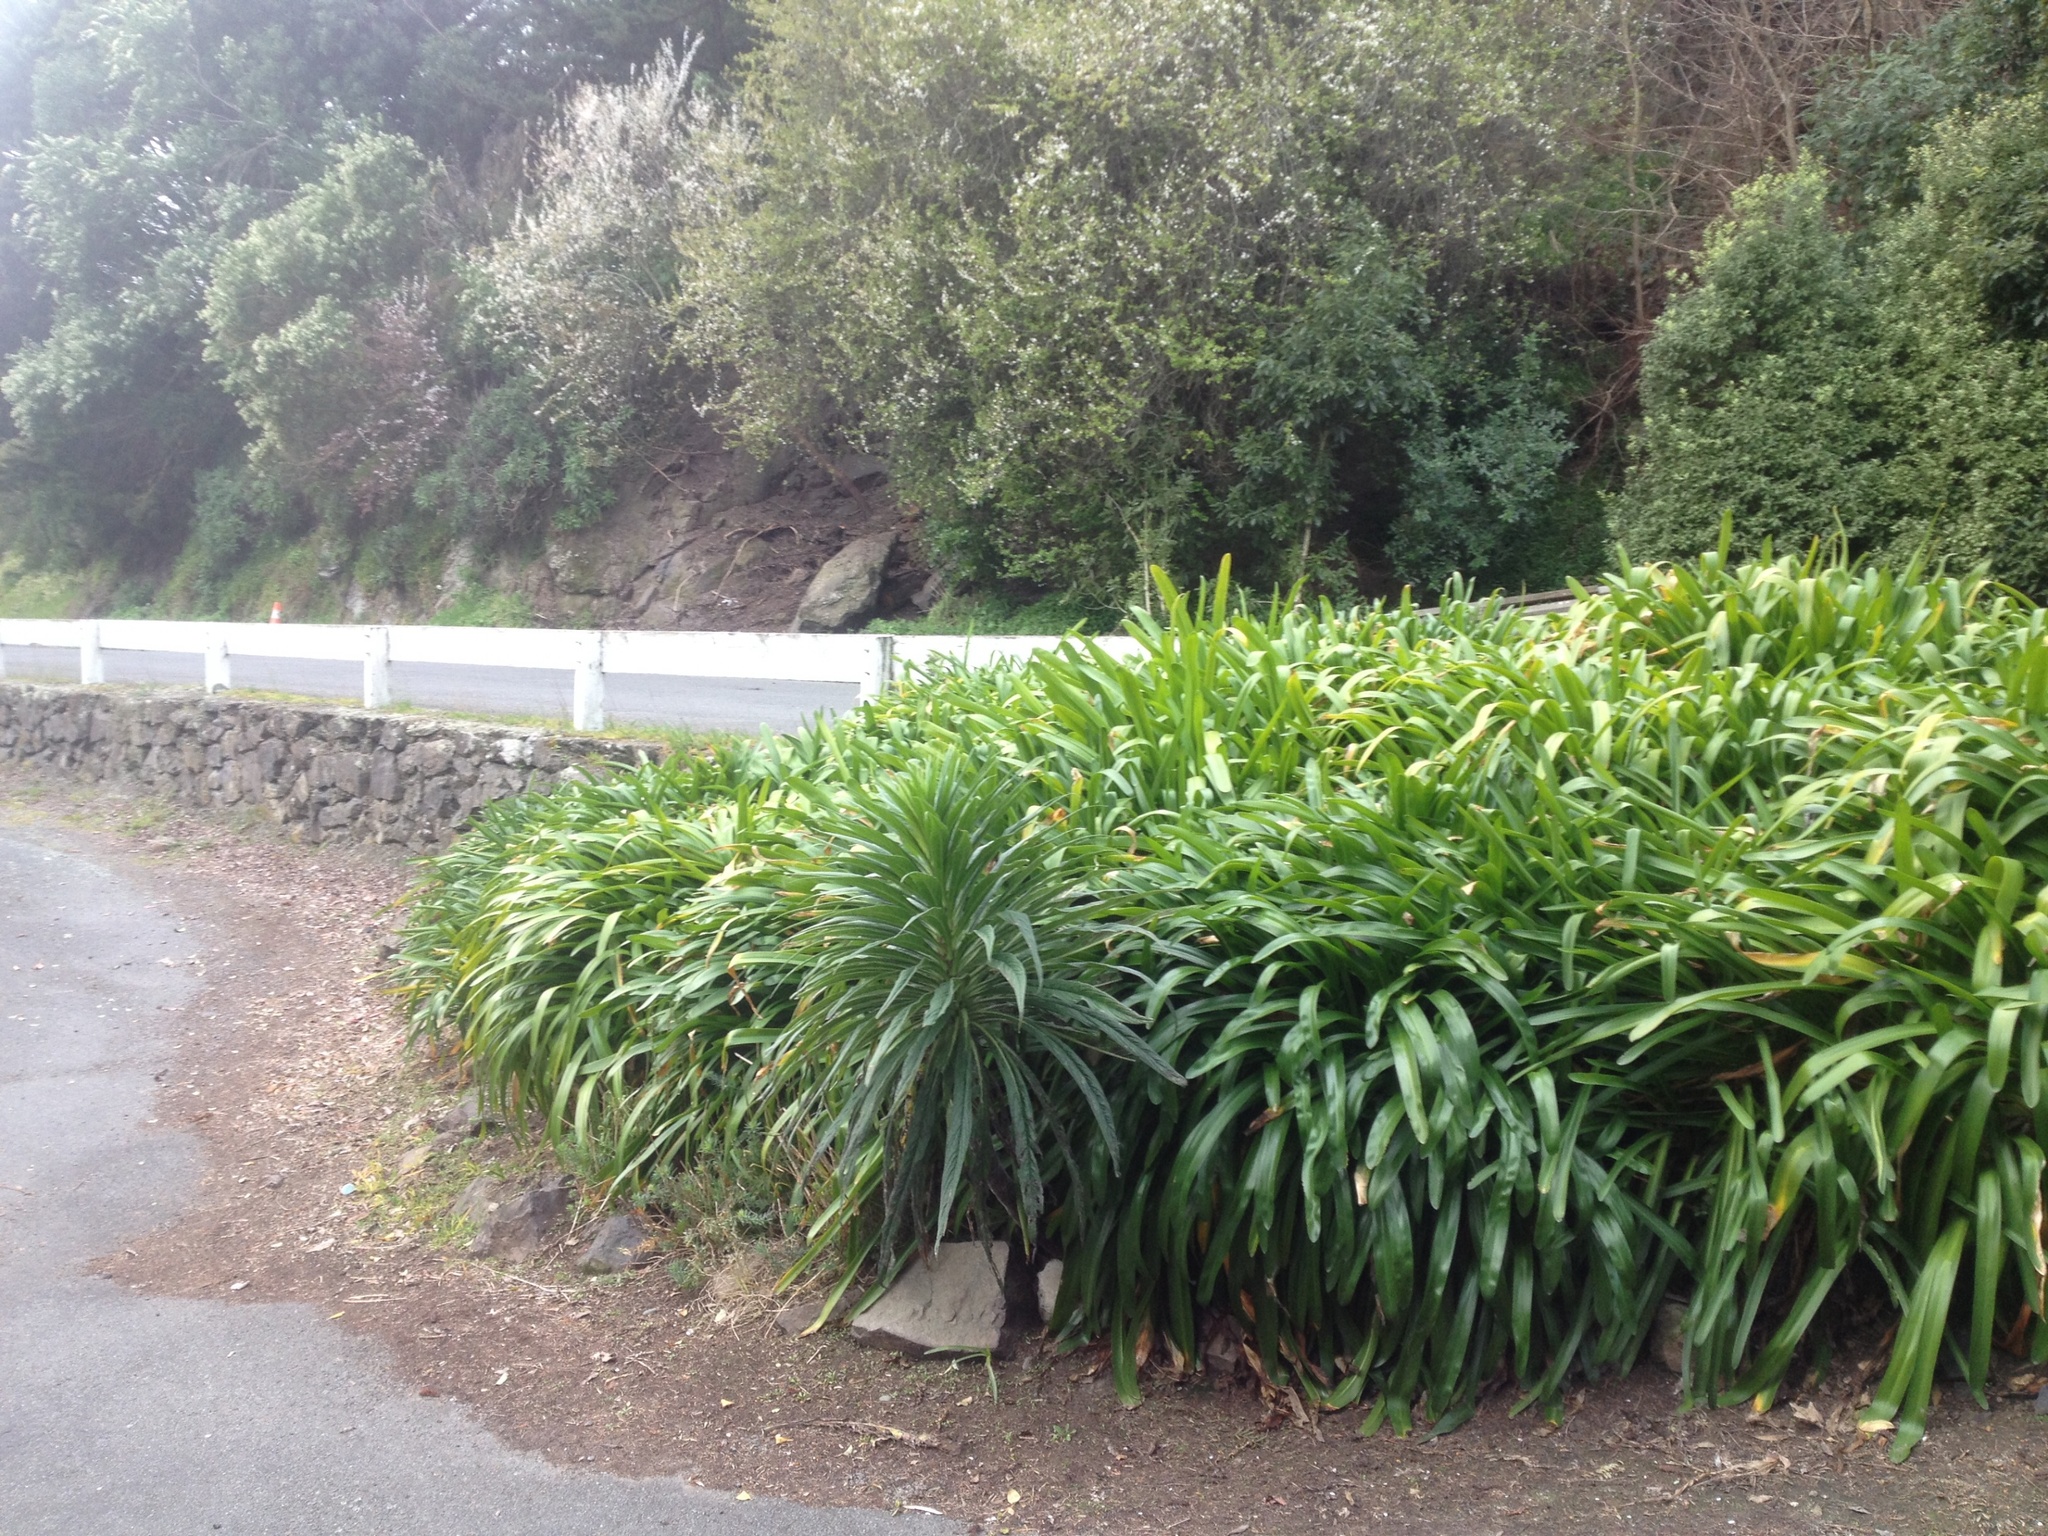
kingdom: Plantae
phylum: Tracheophyta
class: Magnoliopsida
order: Boraginales
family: Boraginaceae
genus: Echium
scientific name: Echium pininana
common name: Giant viper's-bugloss
